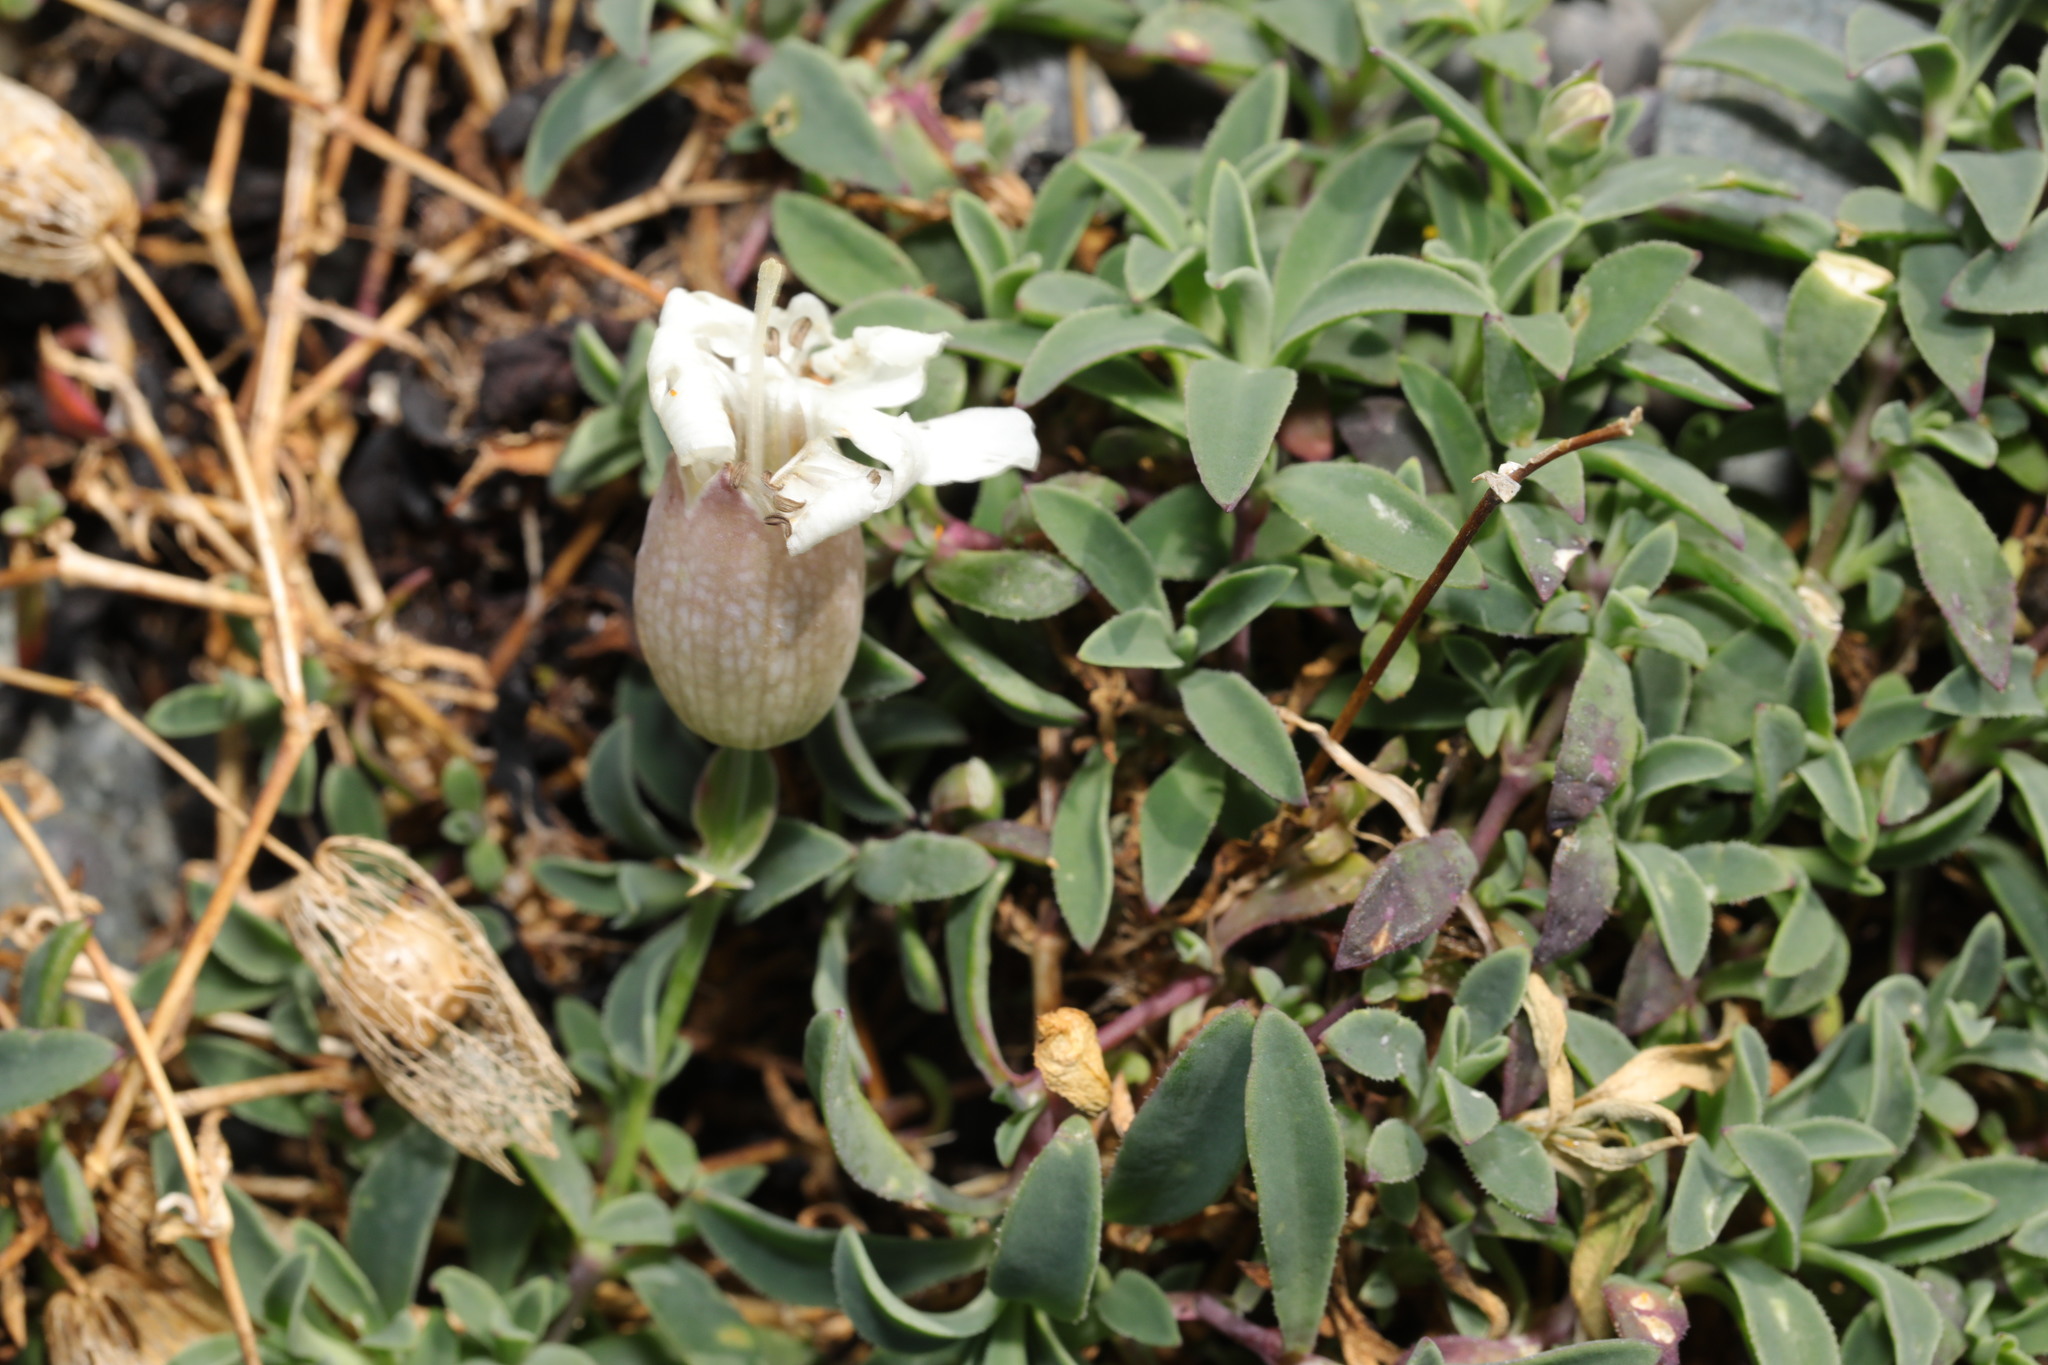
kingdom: Plantae
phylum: Tracheophyta
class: Magnoliopsida
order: Caryophyllales
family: Caryophyllaceae
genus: Silene
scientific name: Silene uniflora
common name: Sea campion
